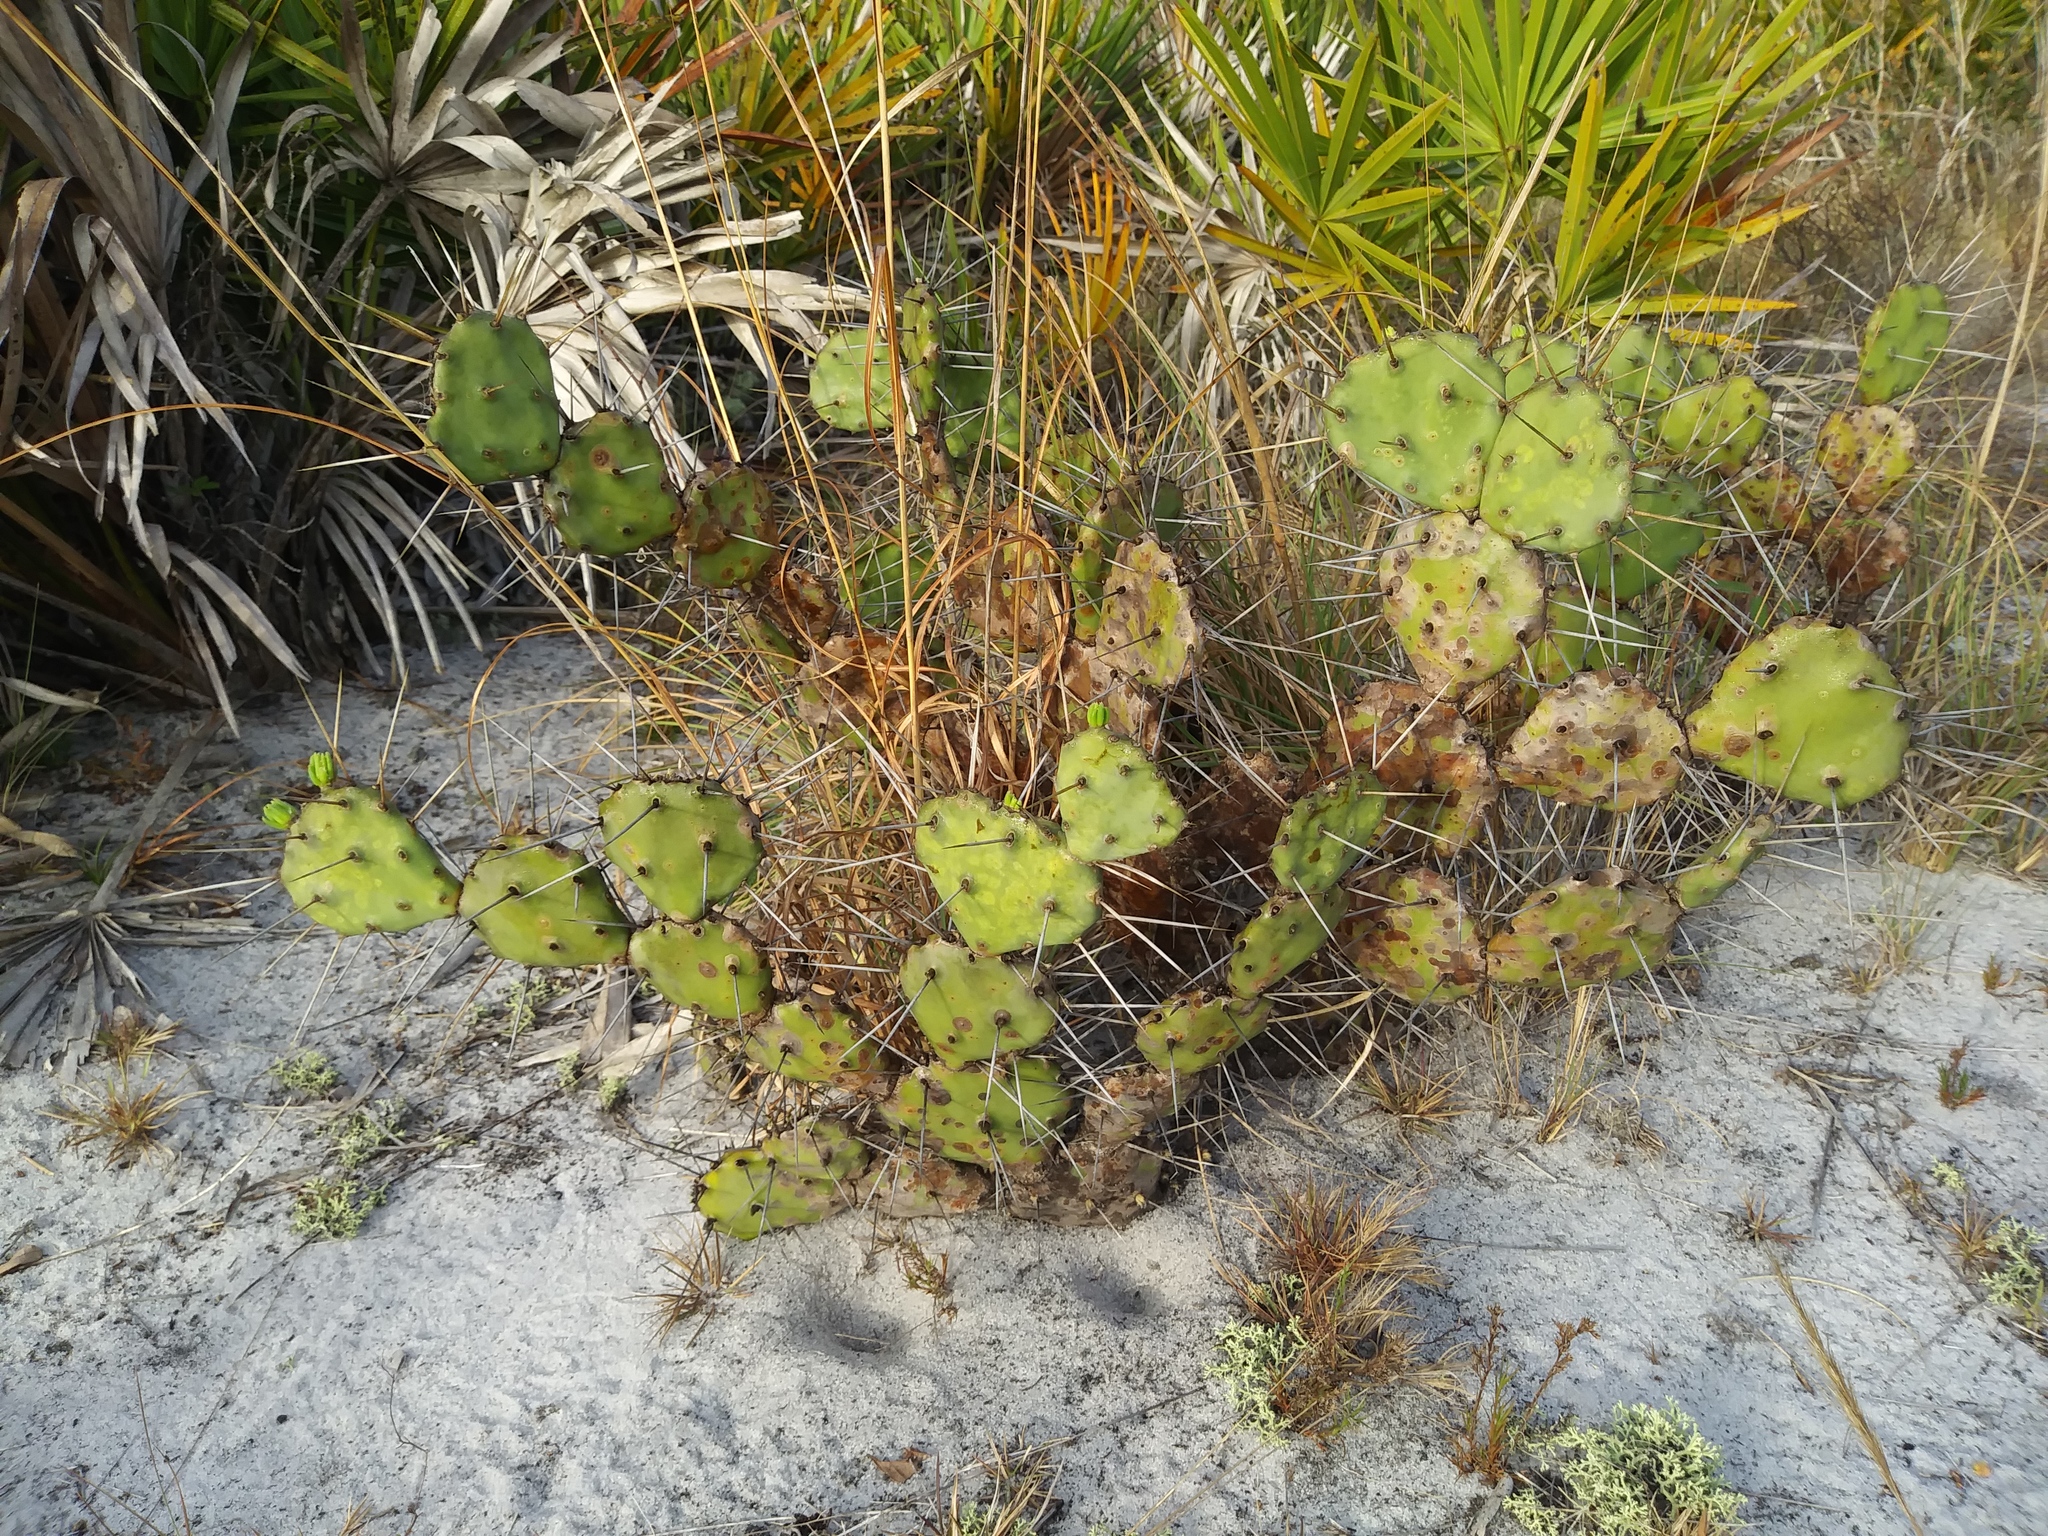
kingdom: Plantae
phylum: Tracheophyta
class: Magnoliopsida
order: Caryophyllales
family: Cactaceae
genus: Opuntia
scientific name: Opuntia austrina
